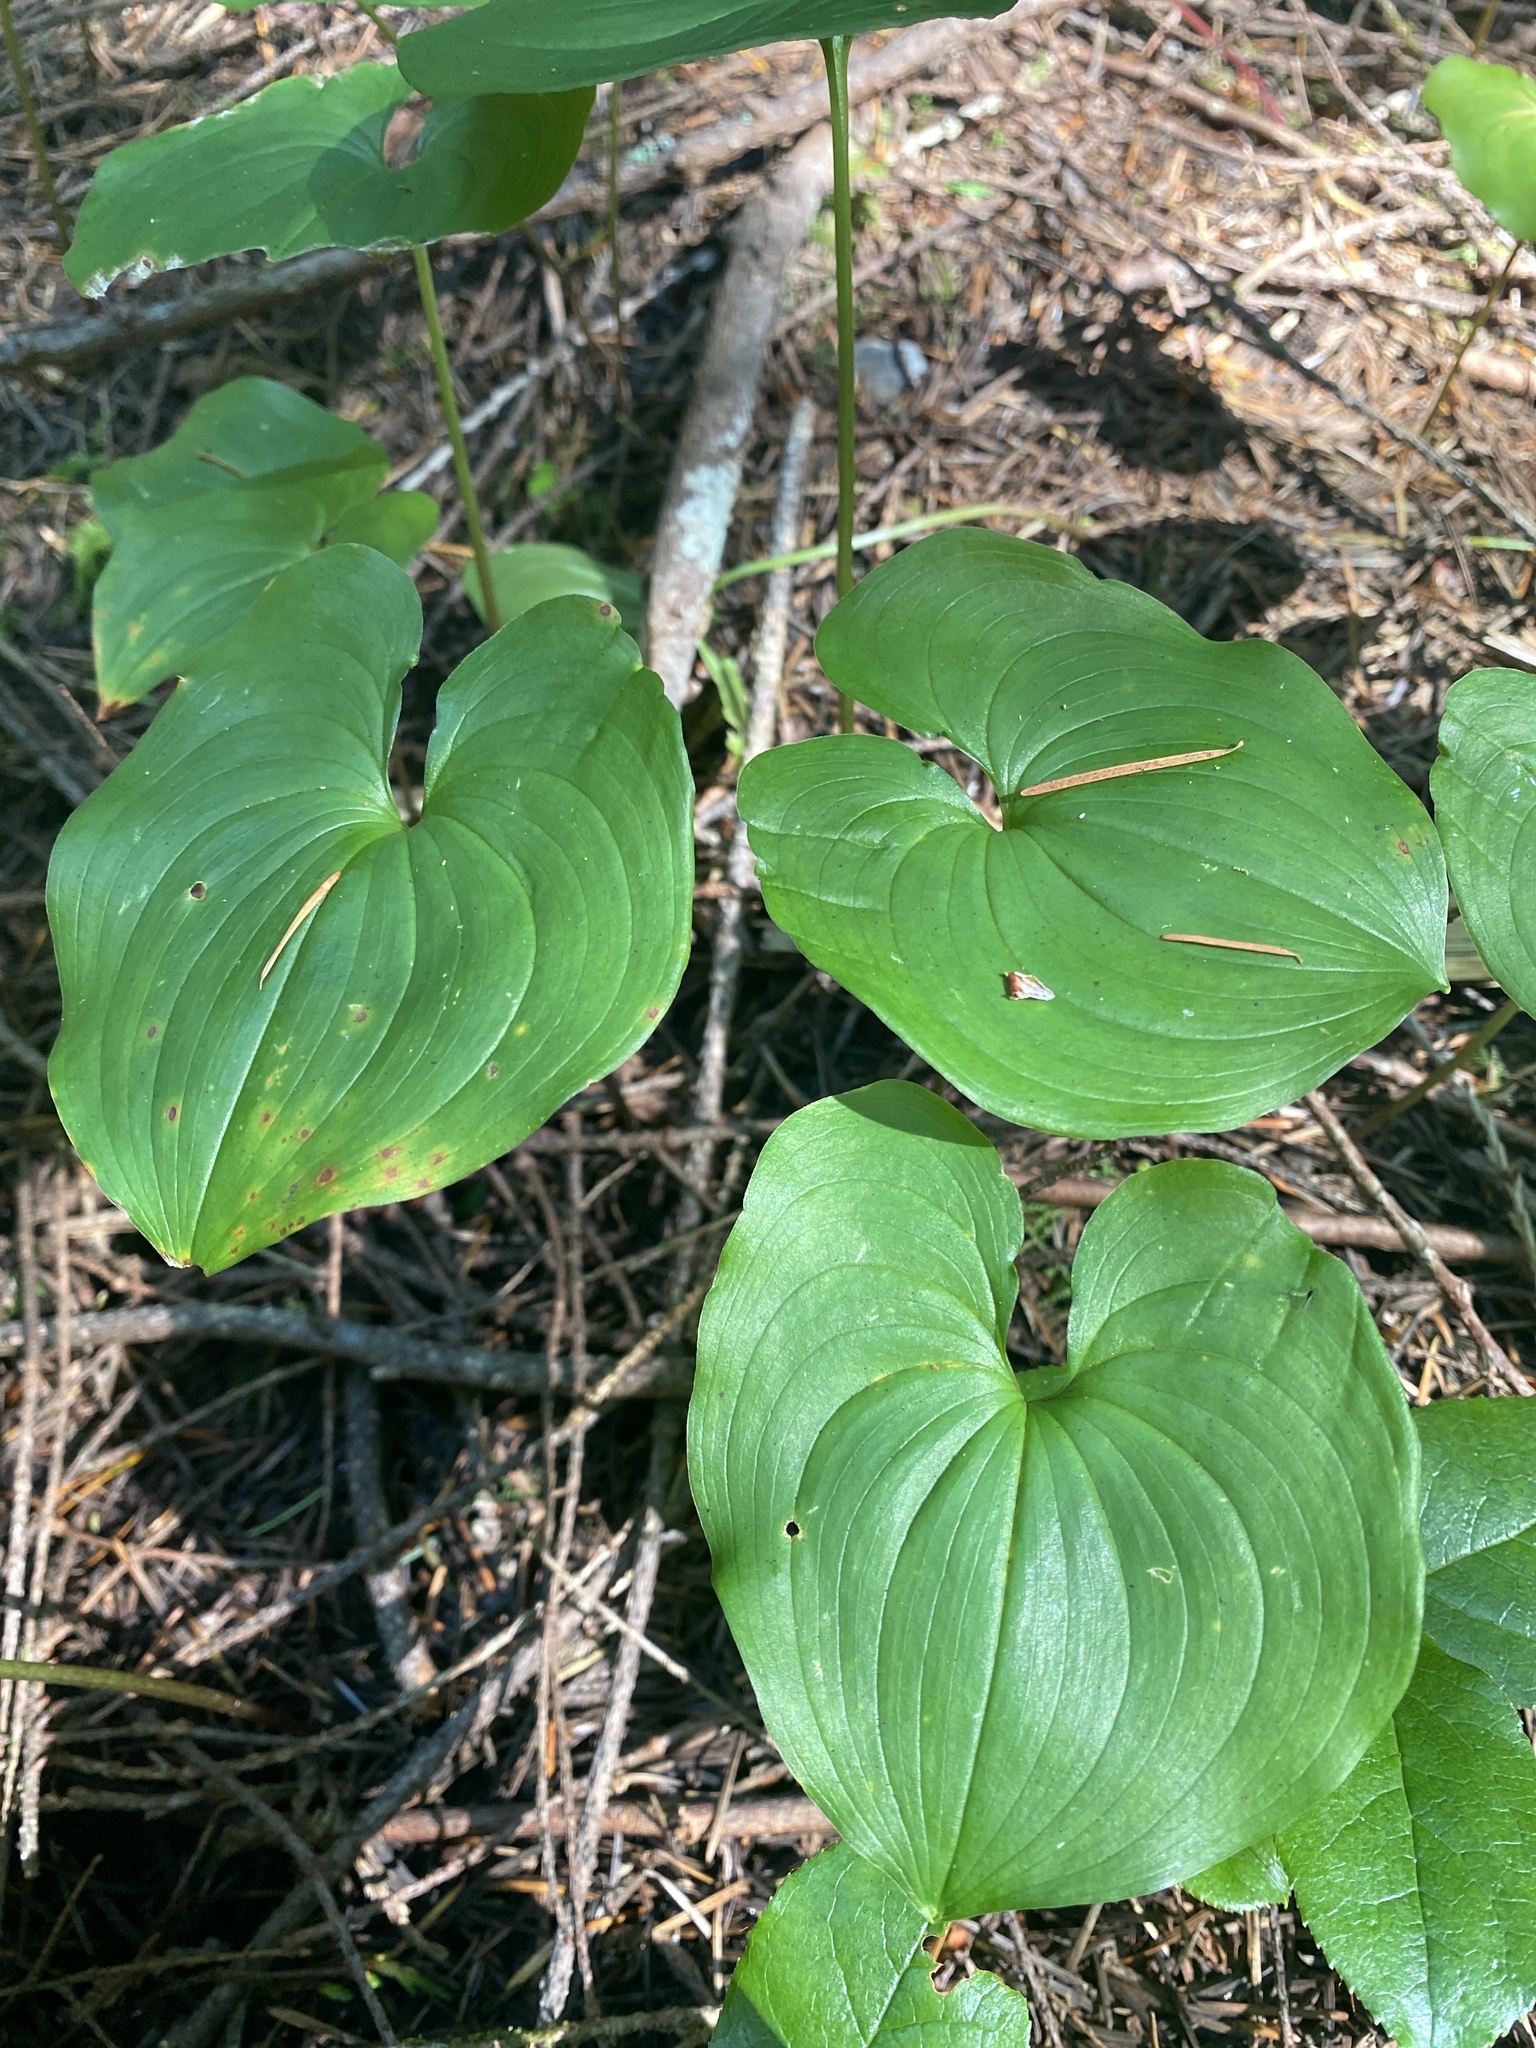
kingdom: Plantae
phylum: Tracheophyta
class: Liliopsida
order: Asparagales
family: Asparagaceae
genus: Maianthemum
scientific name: Maianthemum dilatatum
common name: False lily-of-the-valley
